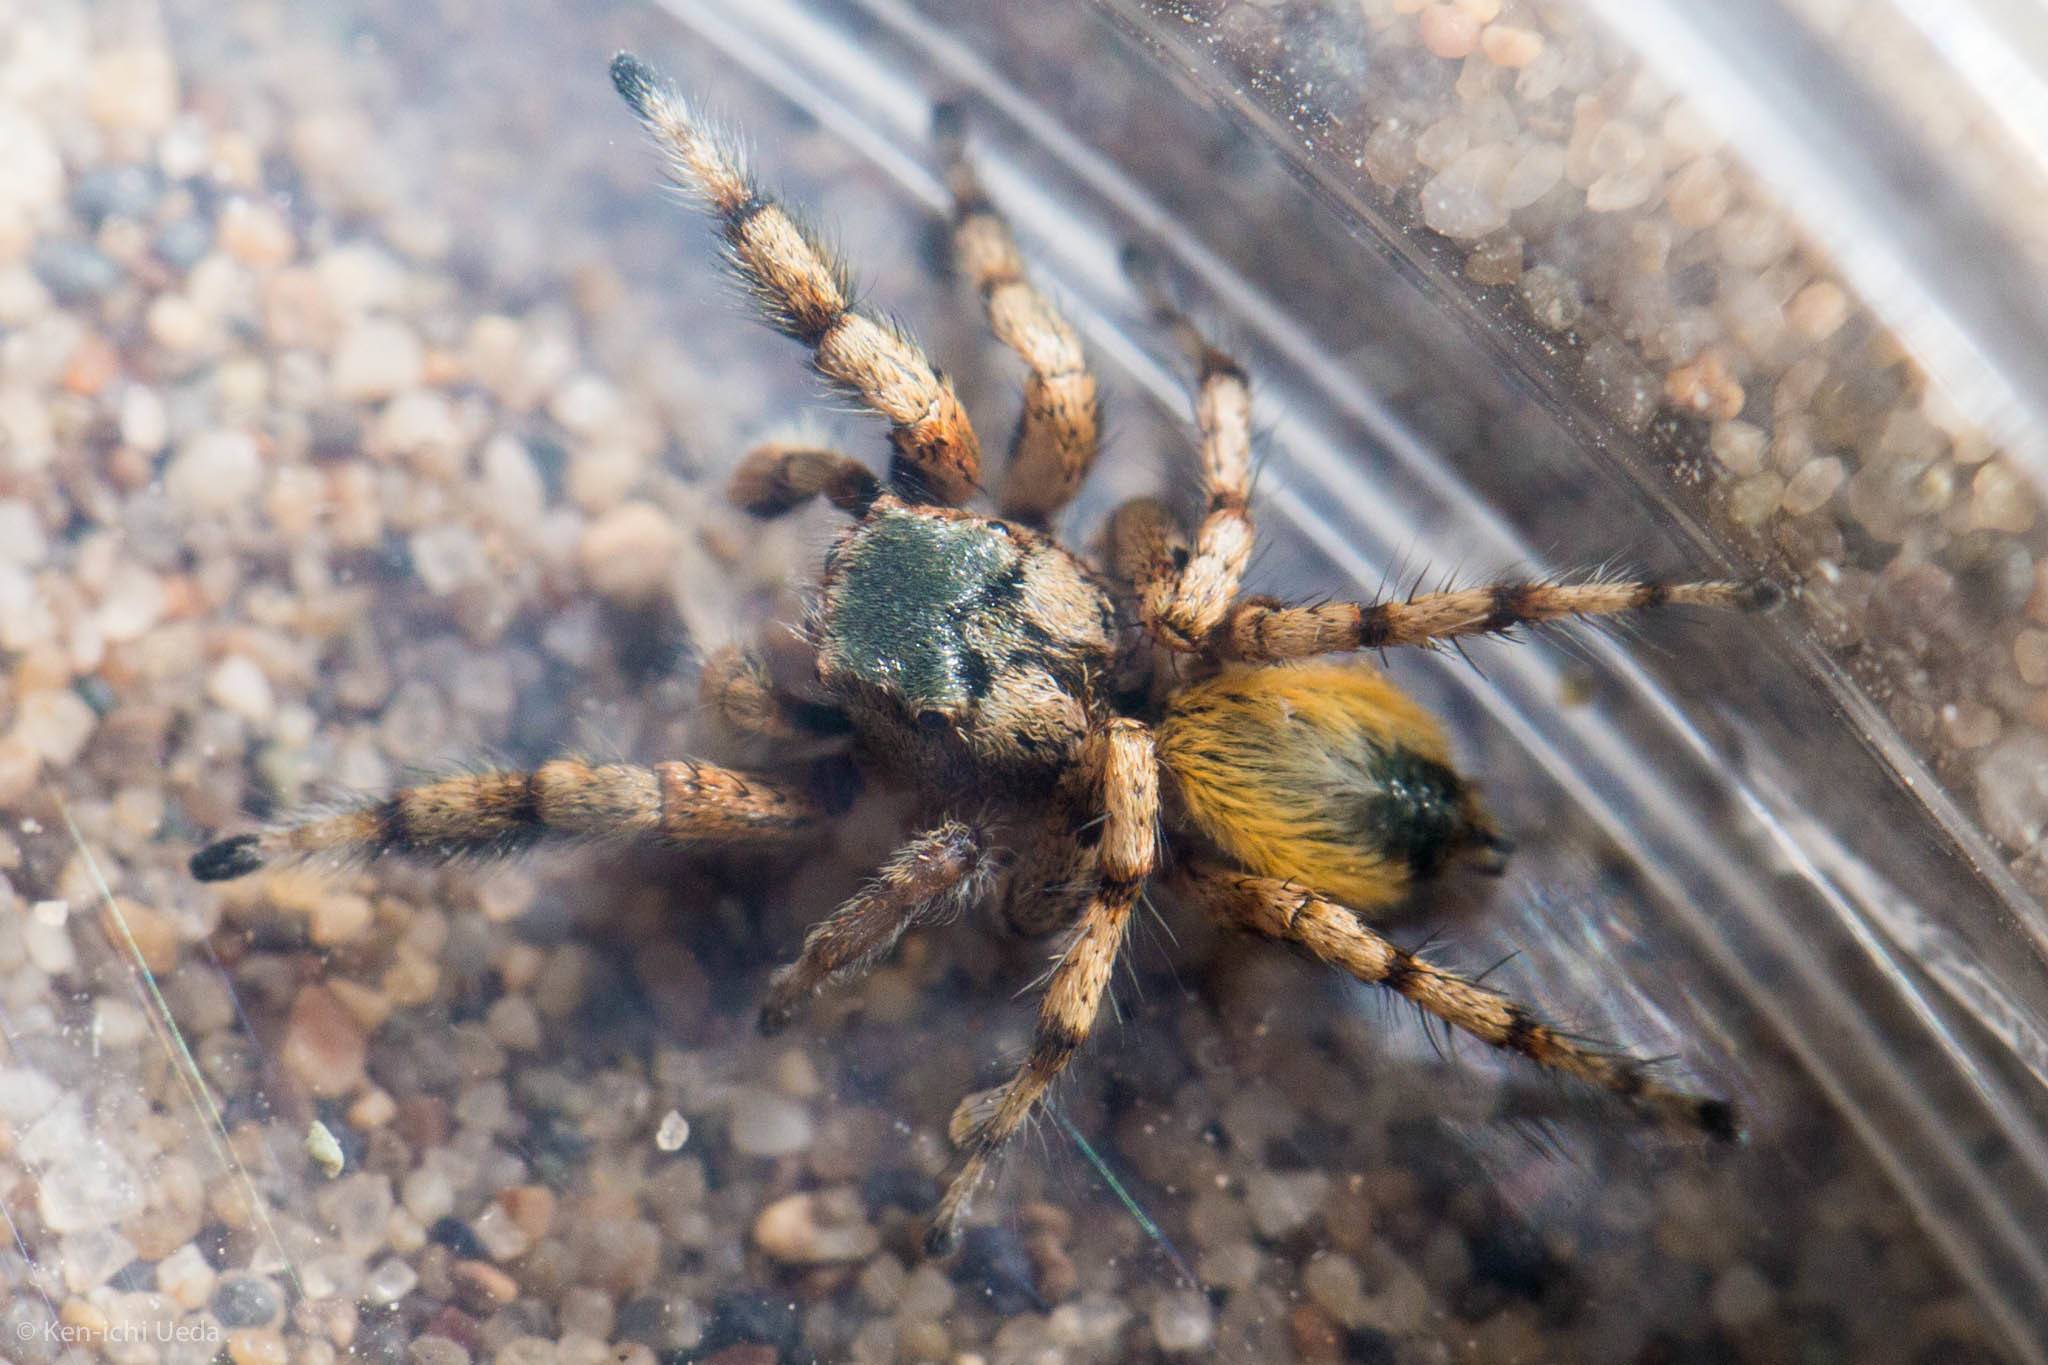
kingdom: Animalia
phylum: Arthropoda
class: Arachnida
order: Araneae
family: Salticidae
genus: Habronattus
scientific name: Habronattus amicus
